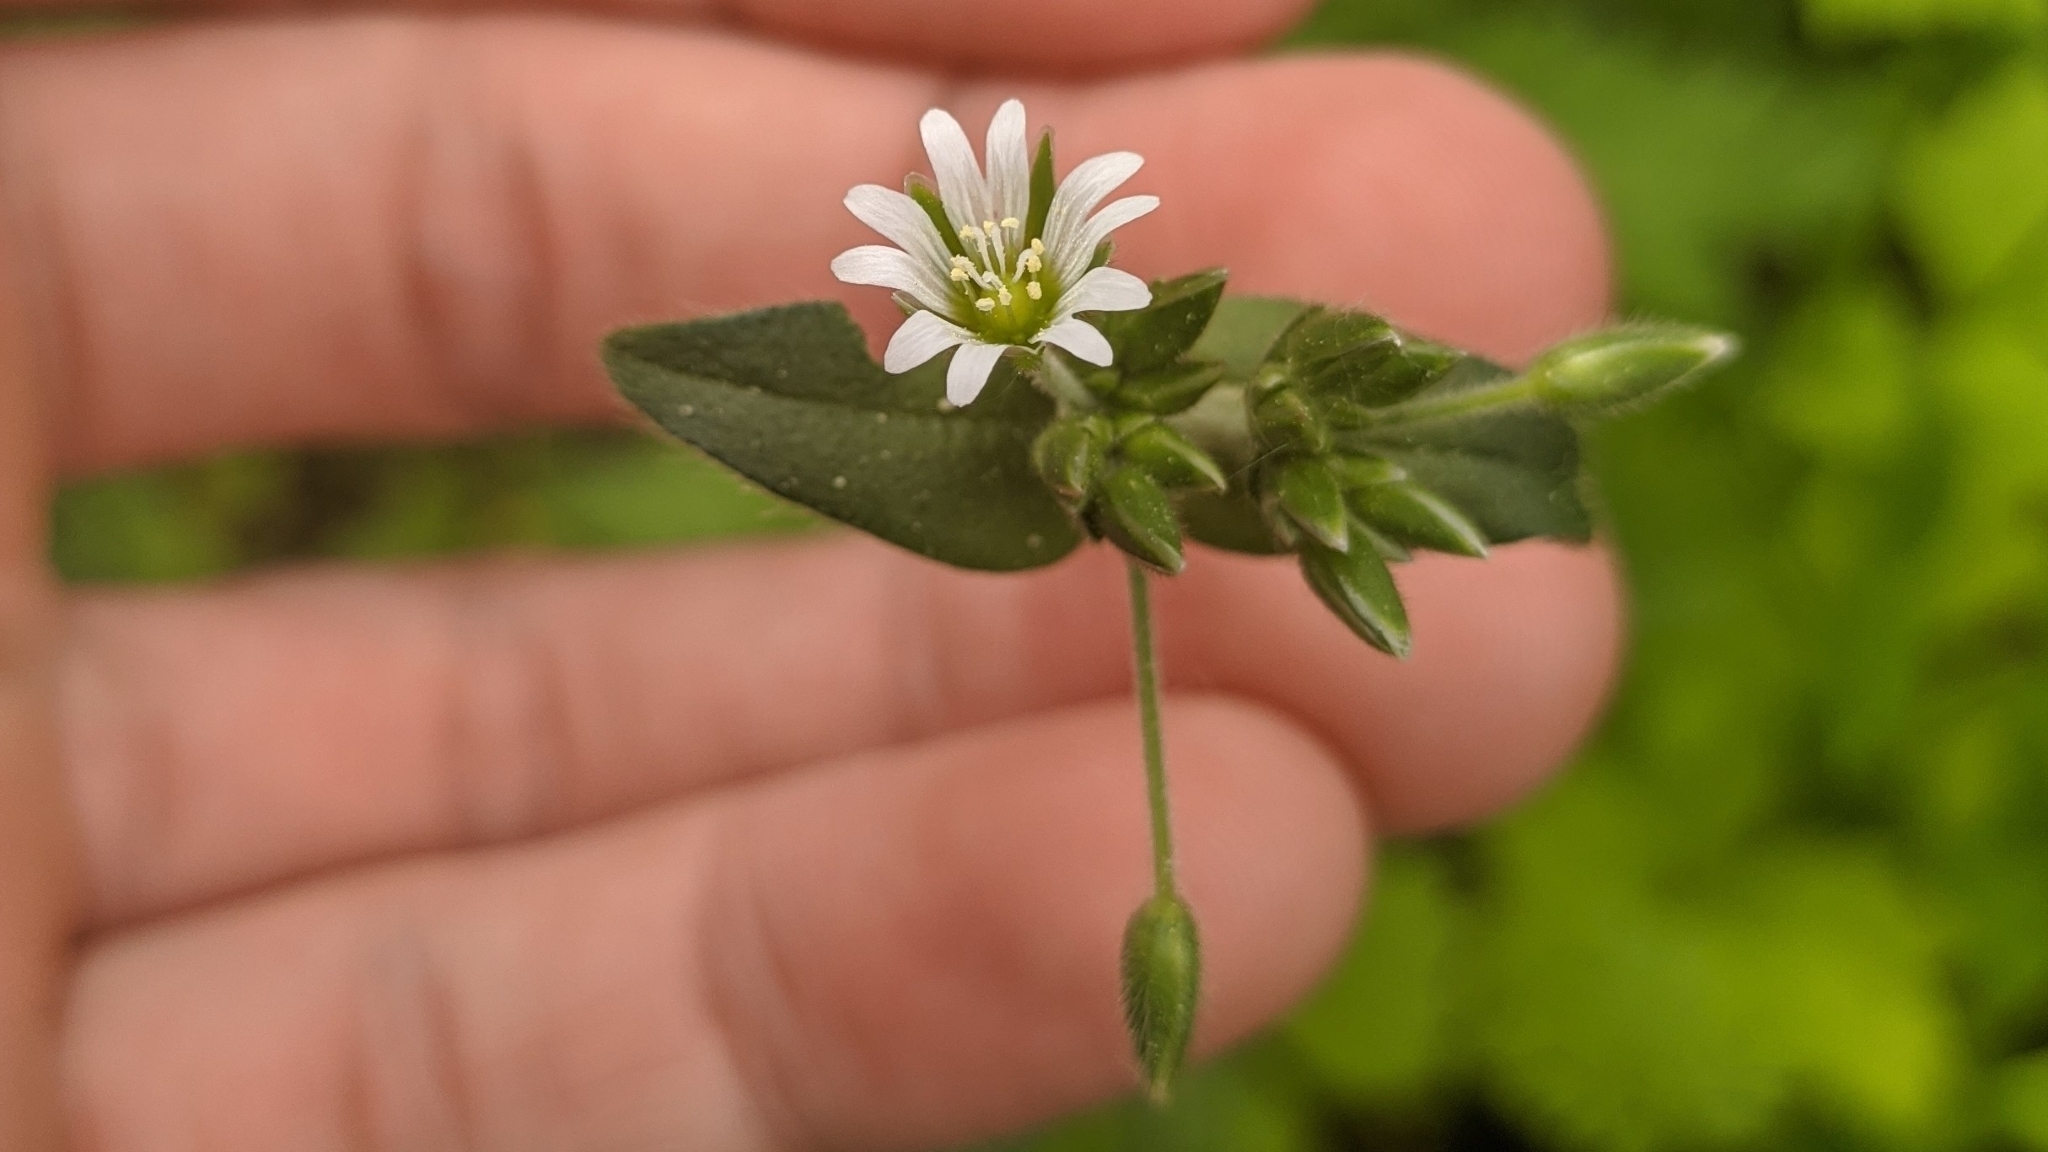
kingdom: Plantae
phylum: Tracheophyta
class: Magnoliopsida
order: Caryophyllales
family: Caryophyllaceae
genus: Cerastium
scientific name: Cerastium holosteoides
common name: Big chickweed
